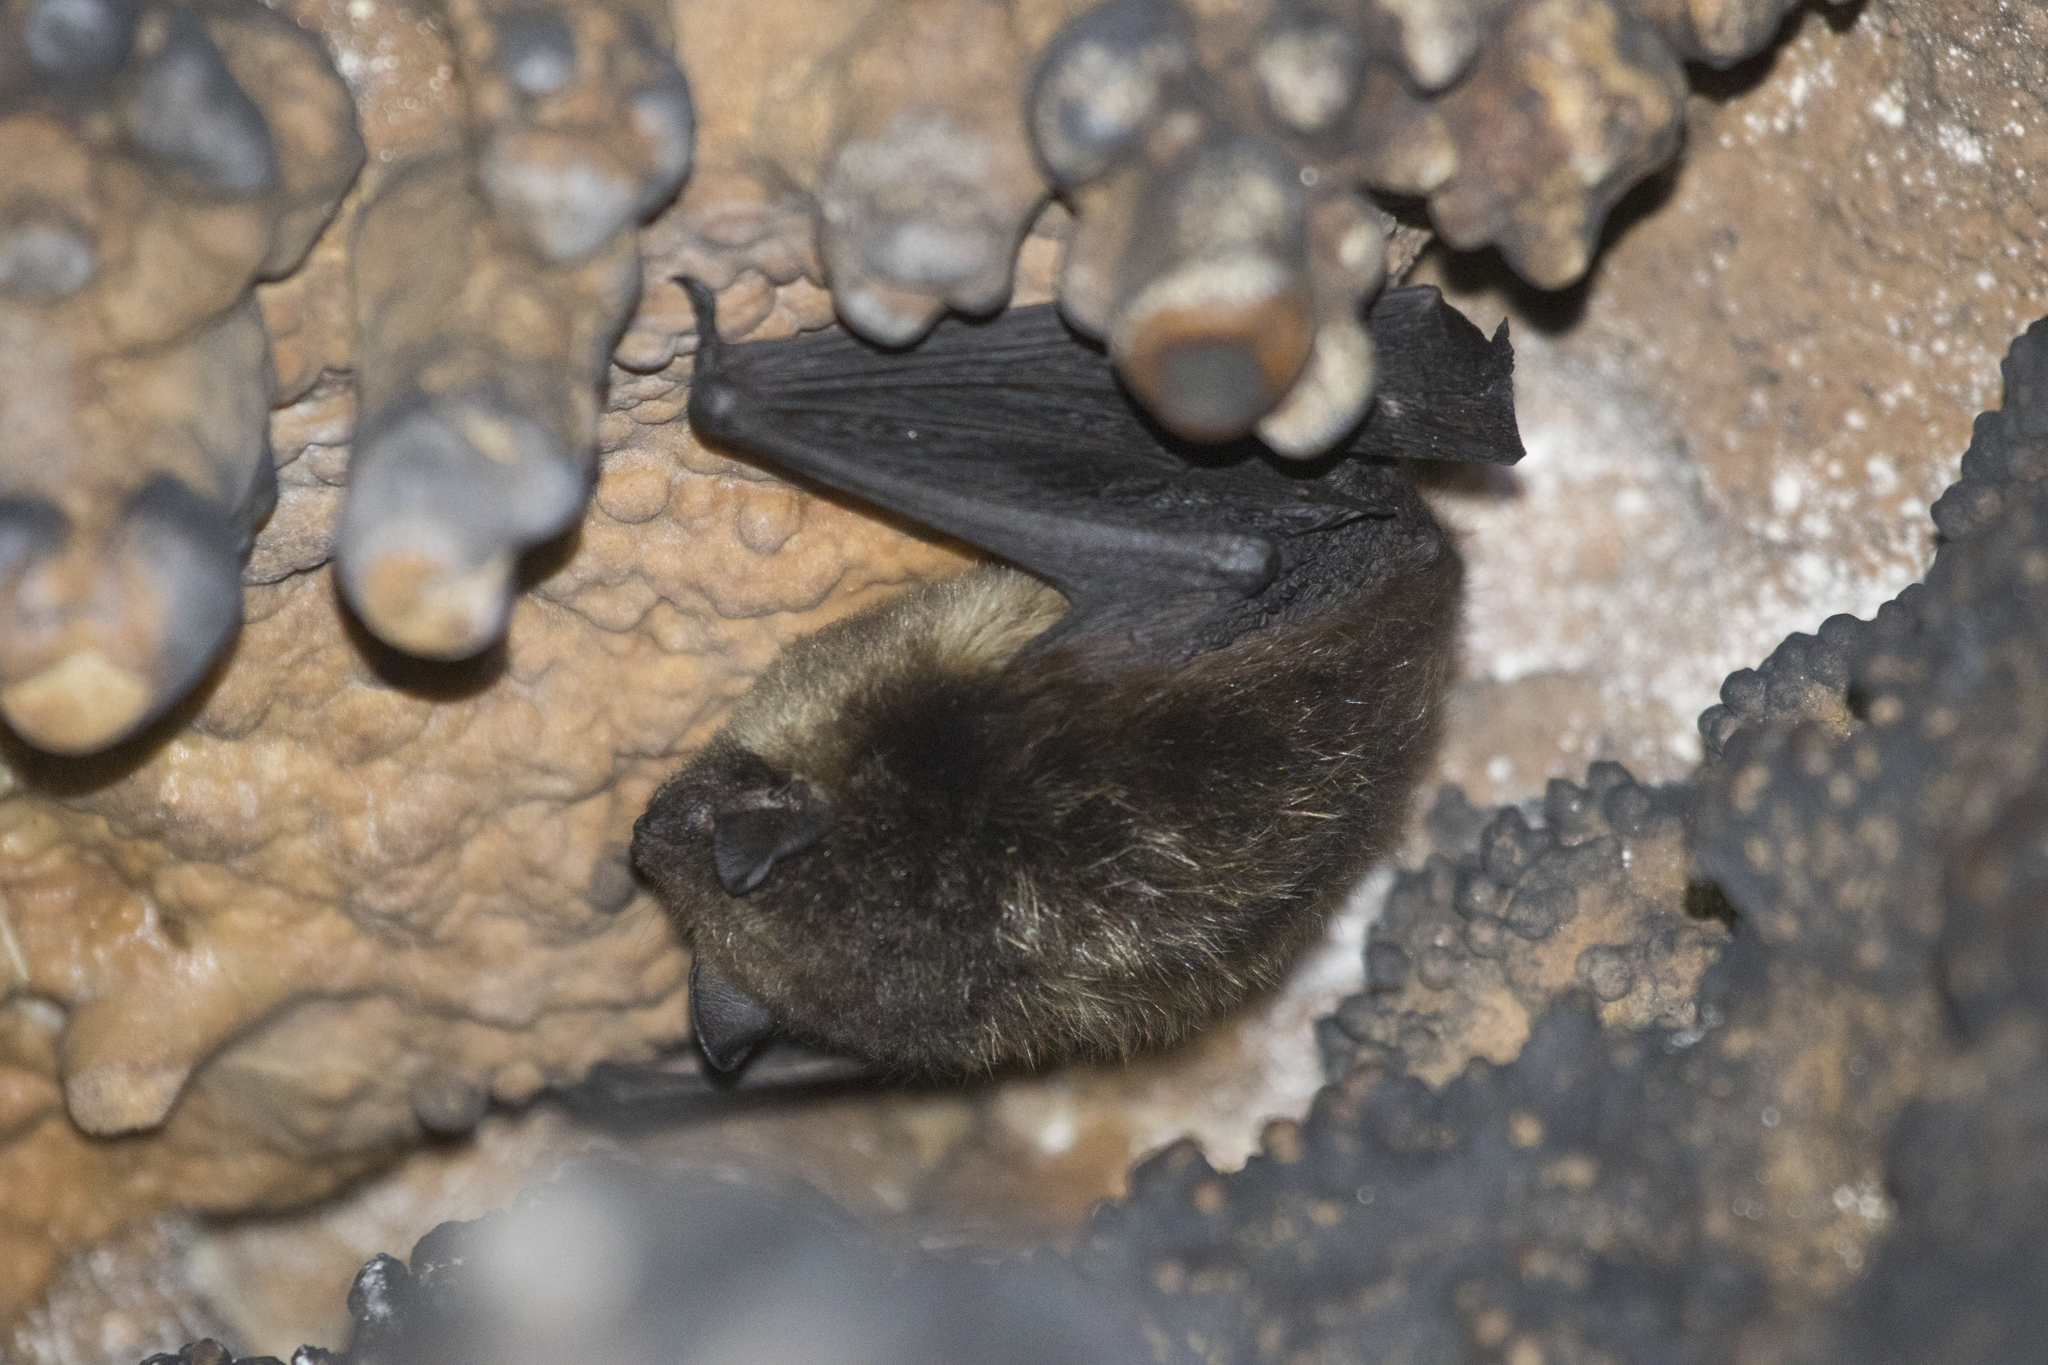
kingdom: Animalia
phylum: Chordata
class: Mammalia
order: Chiroptera
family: Vespertilionidae
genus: Eptesicus
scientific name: Eptesicus nilssonii
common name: Northern bat
